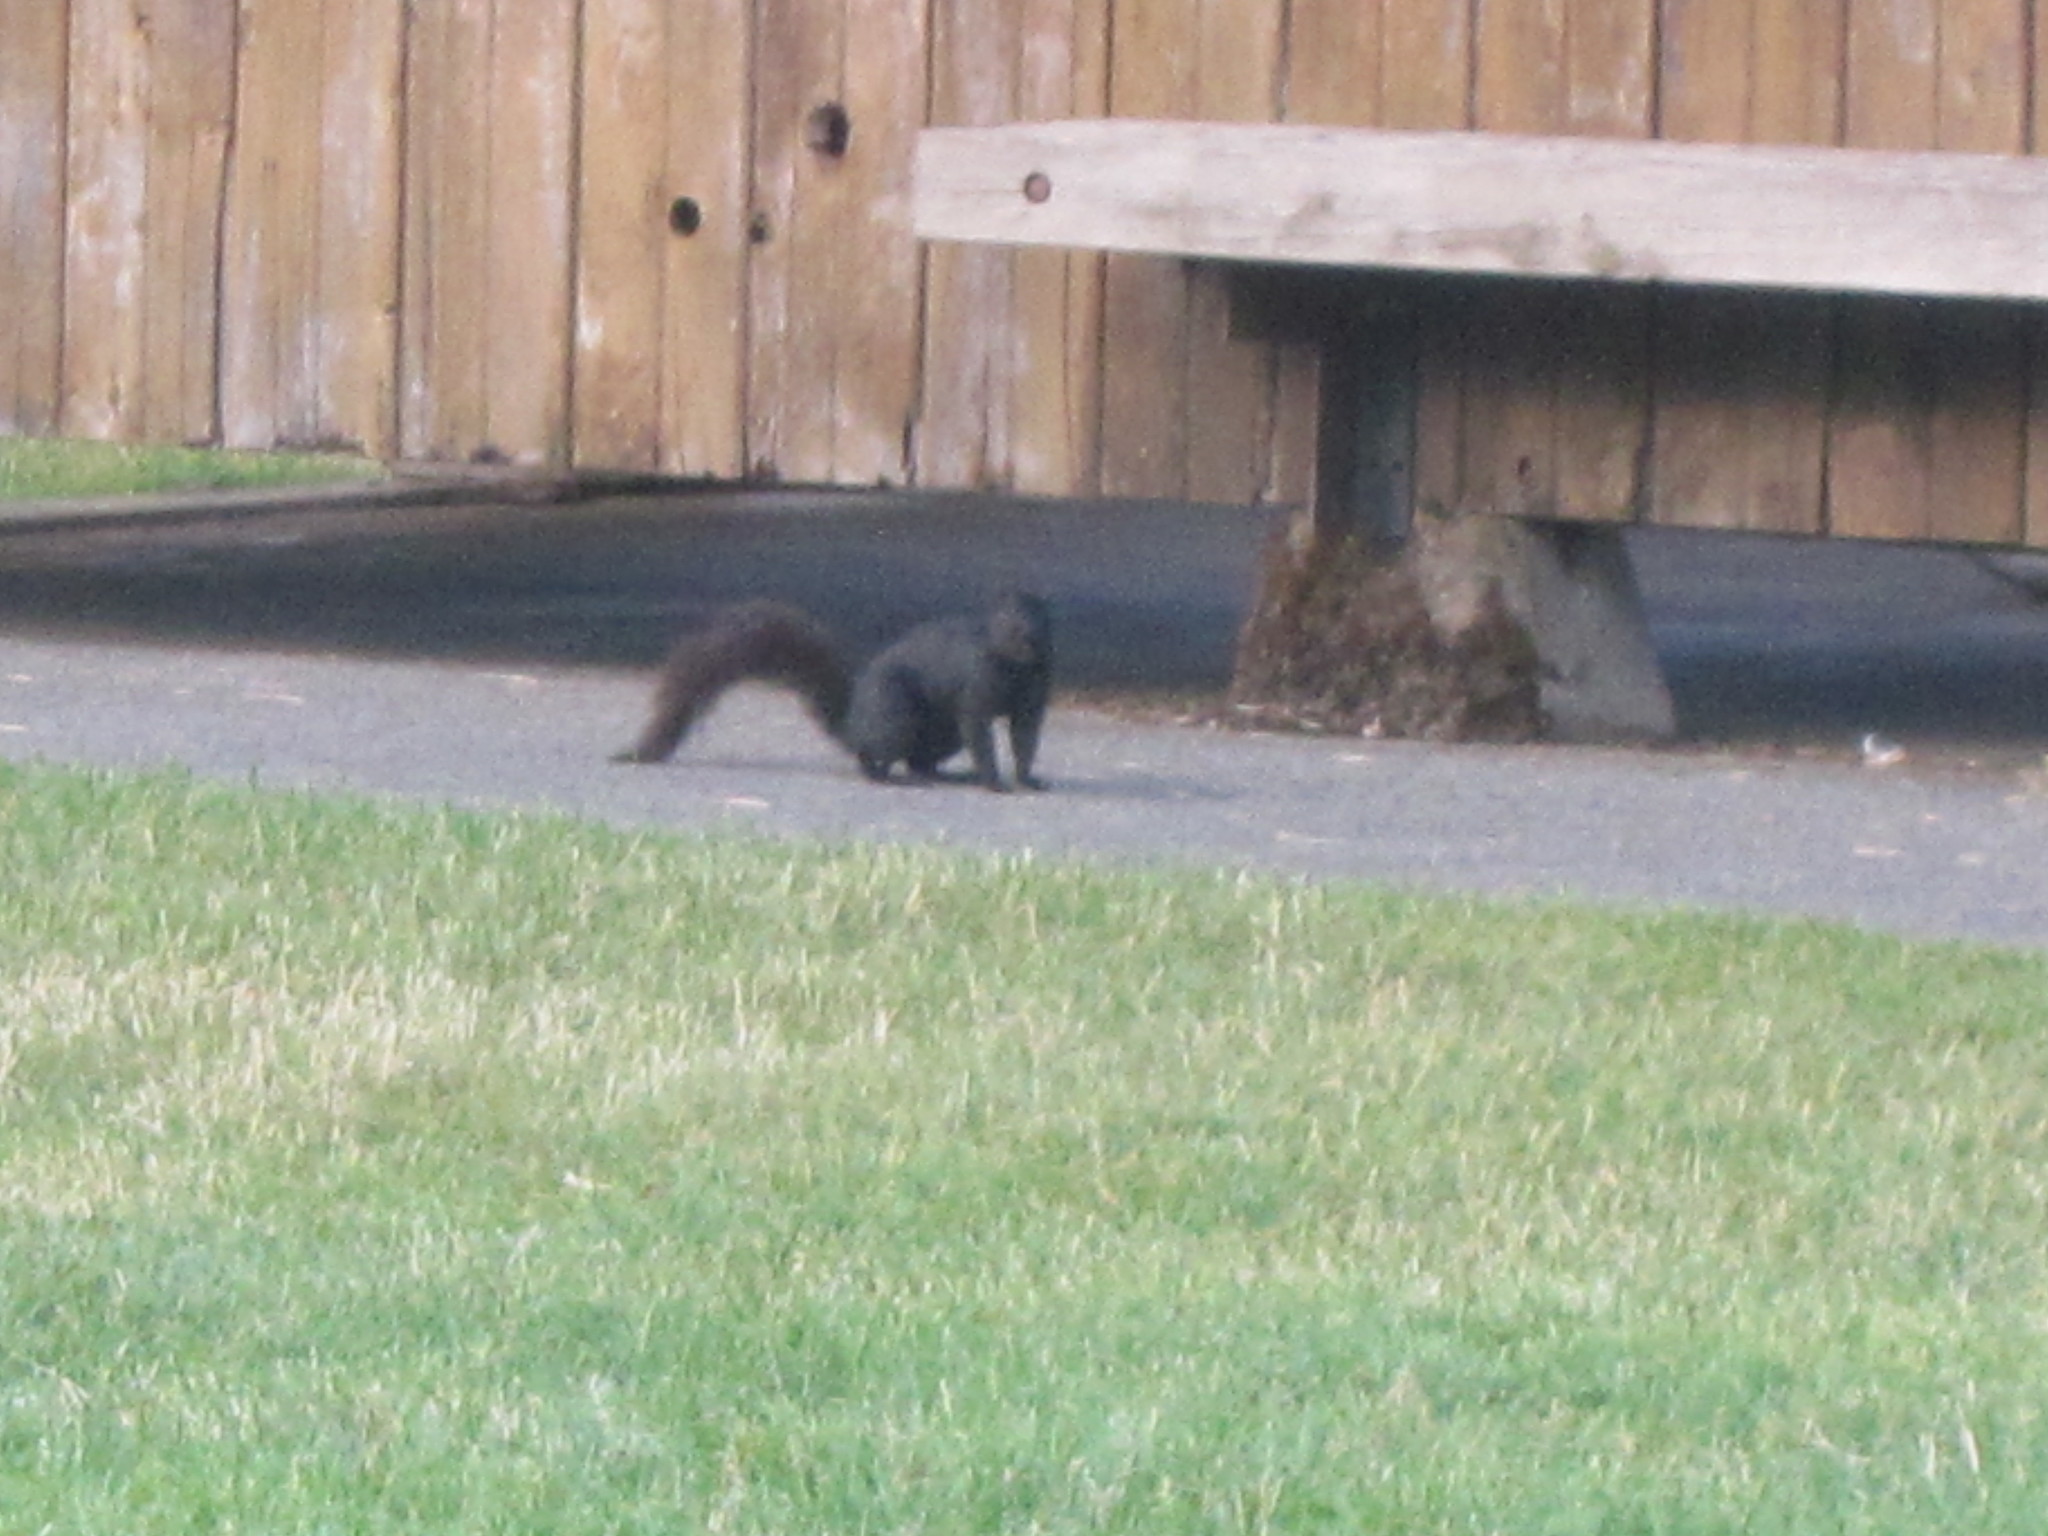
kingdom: Animalia
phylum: Chordata
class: Mammalia
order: Rodentia
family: Sciuridae
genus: Sciurus
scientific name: Sciurus carolinensis
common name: Eastern gray squirrel
